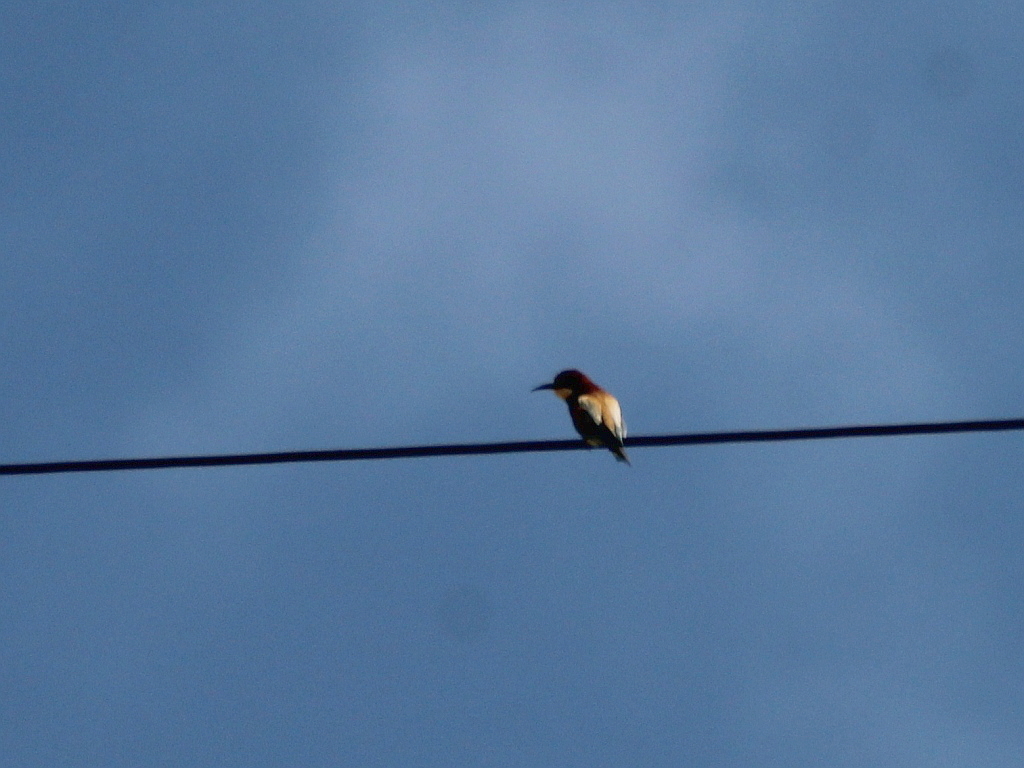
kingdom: Animalia
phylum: Chordata
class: Aves
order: Coraciiformes
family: Meropidae
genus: Merops
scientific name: Merops apiaster
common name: European bee-eater
